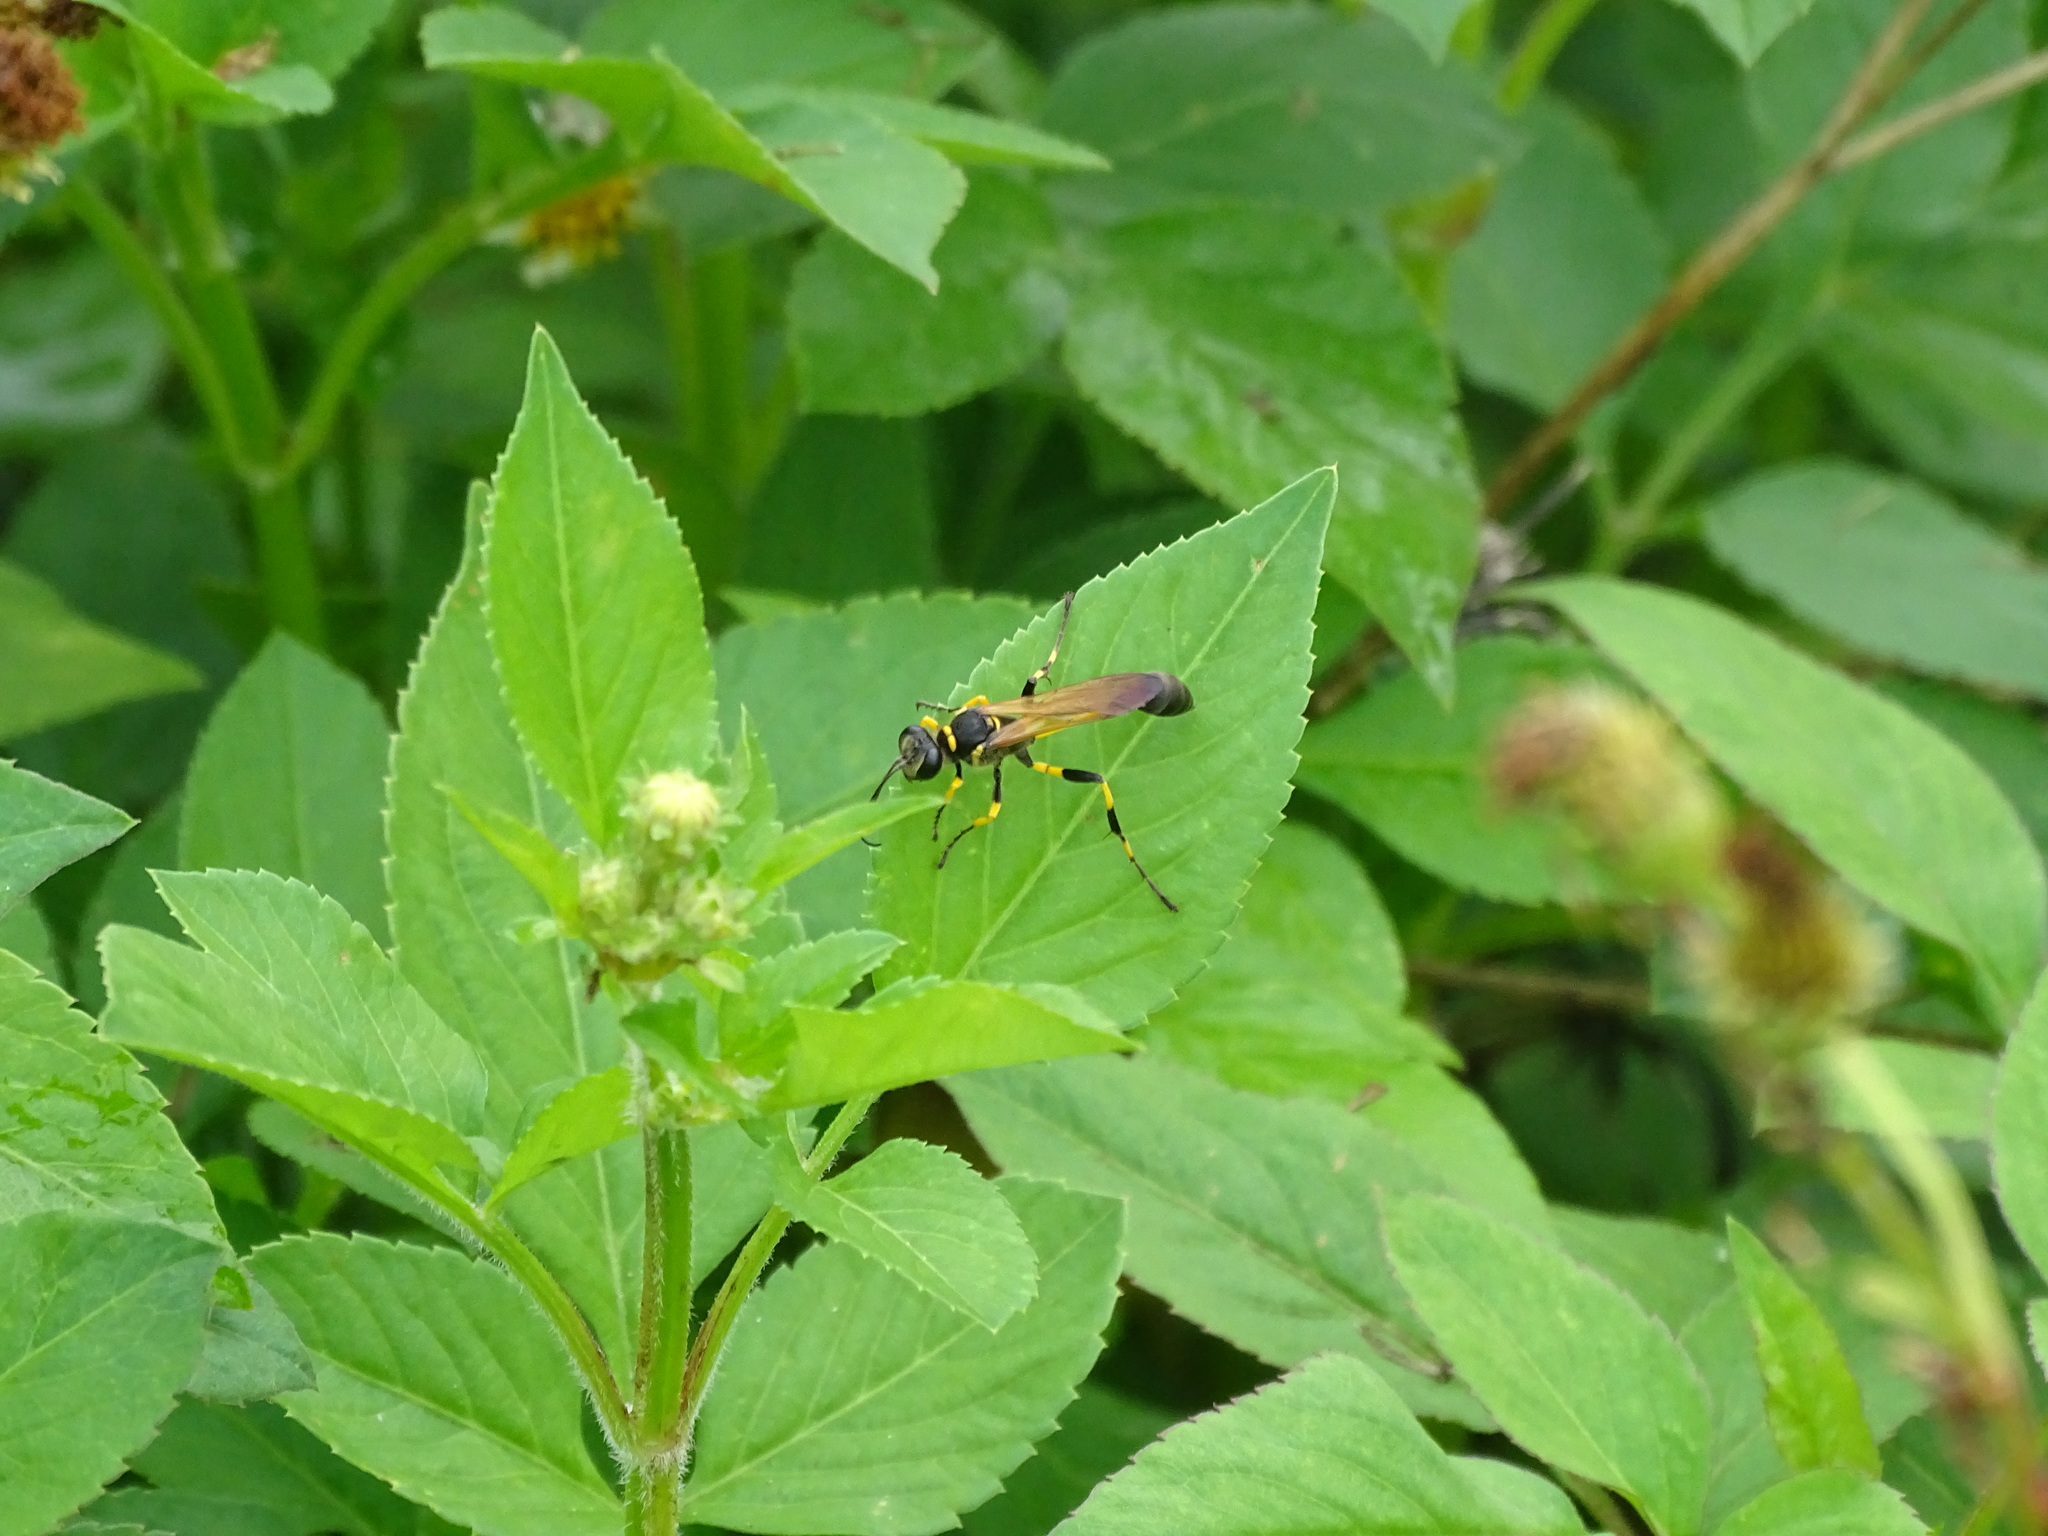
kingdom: Animalia
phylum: Arthropoda
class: Insecta
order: Hymenoptera
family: Sphecidae
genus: Sceliphron
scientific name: Sceliphron madraspatanum
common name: Mud dauber
